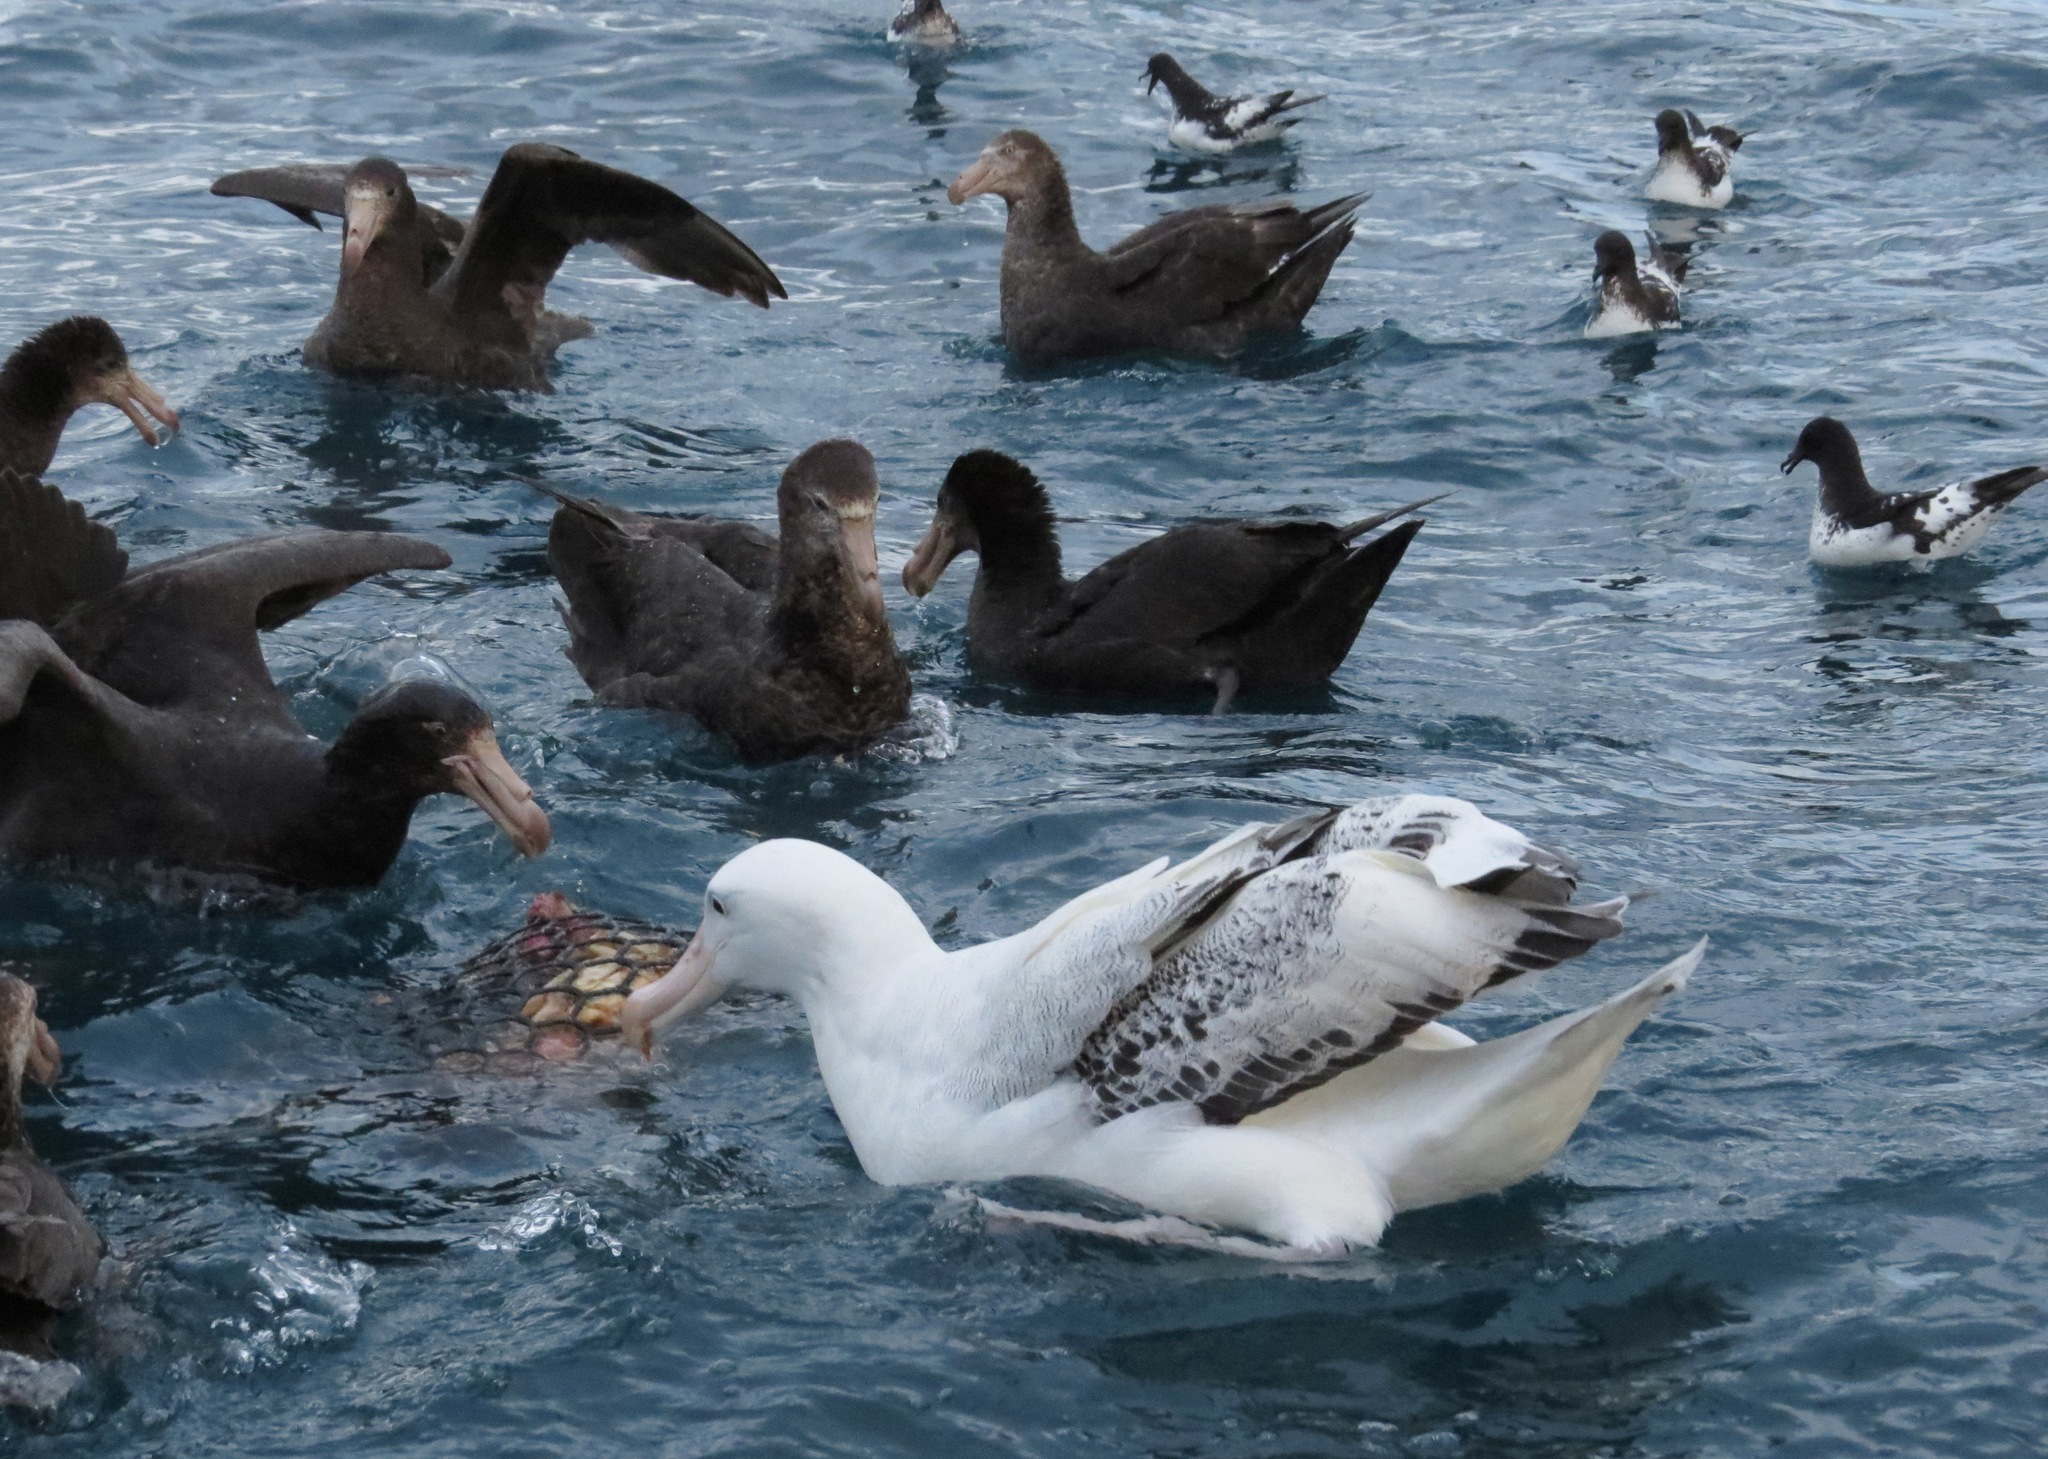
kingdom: Animalia
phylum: Chordata
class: Aves
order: Procellariiformes
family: Diomedeidae
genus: Diomedea
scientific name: Diomedea exulans
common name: Wandering albatross
